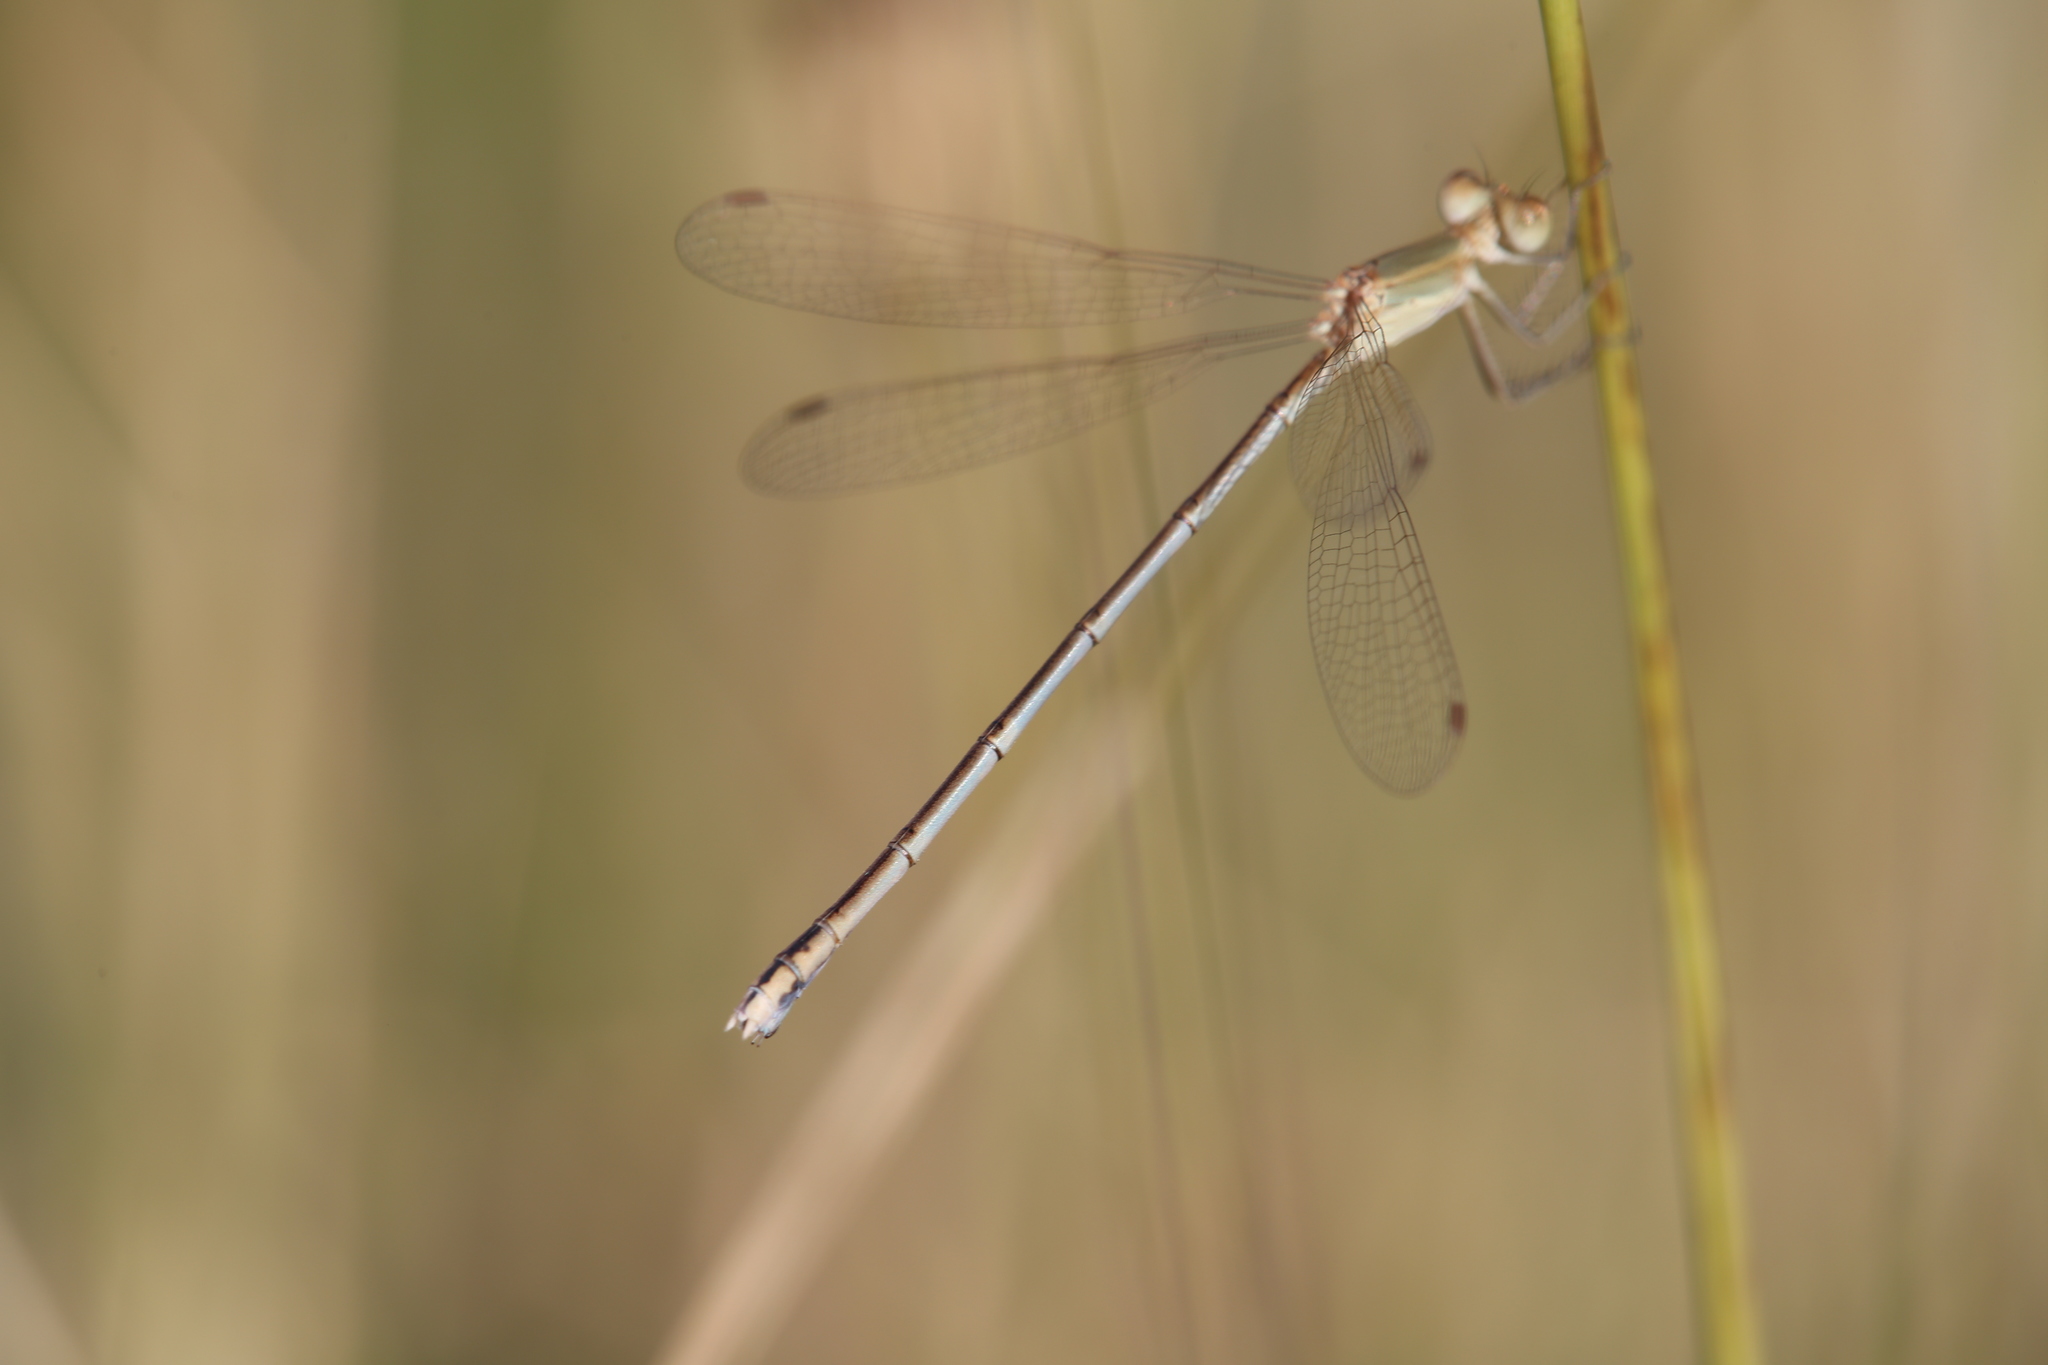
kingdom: Animalia
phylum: Arthropoda
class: Insecta
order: Odonata
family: Lestidae
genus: Lestes
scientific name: Lestes concinnus
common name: Dusky spreadwing
